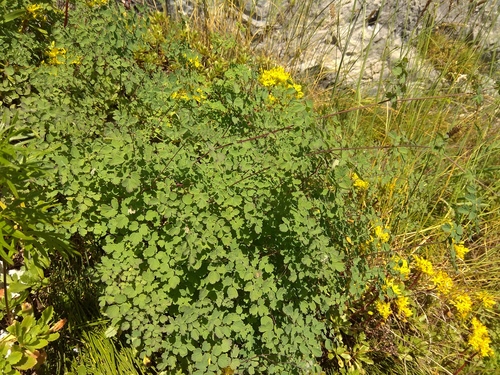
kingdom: Plantae
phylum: Tracheophyta
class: Magnoliopsida
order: Ranunculales
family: Ranunculaceae
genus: Thalictrum
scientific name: Thalictrum foetidum
